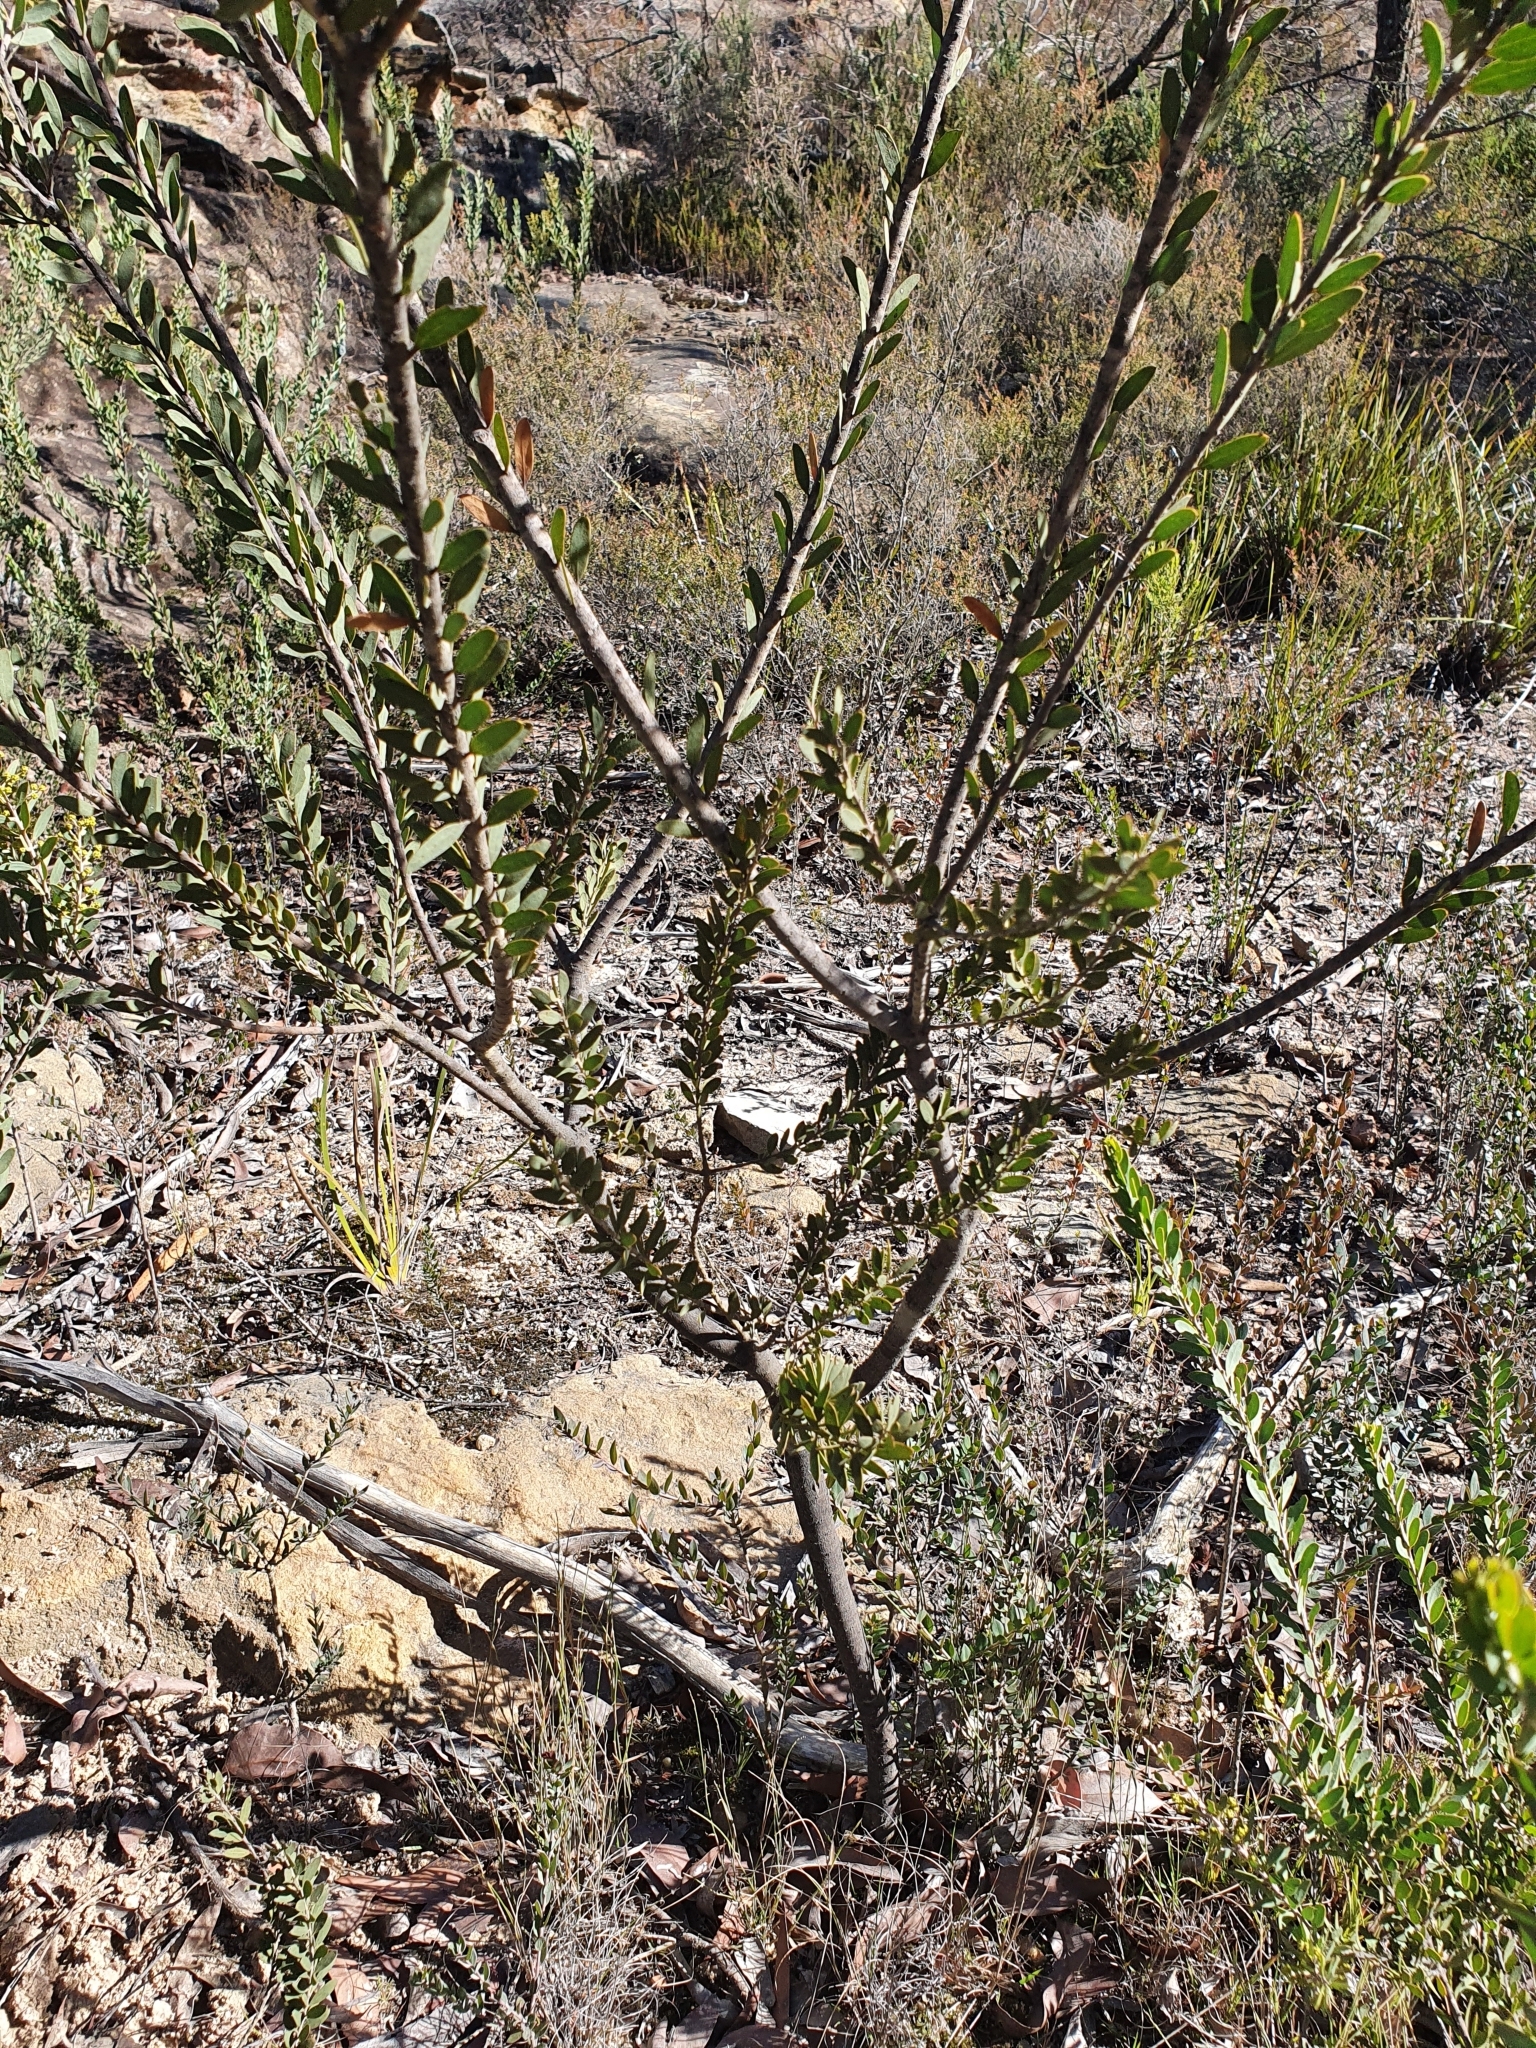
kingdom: Plantae
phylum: Tracheophyta
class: Magnoliopsida
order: Fabales
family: Fabaceae
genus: Acacia
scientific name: Acacia kybeanensis
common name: Kybean wattle
